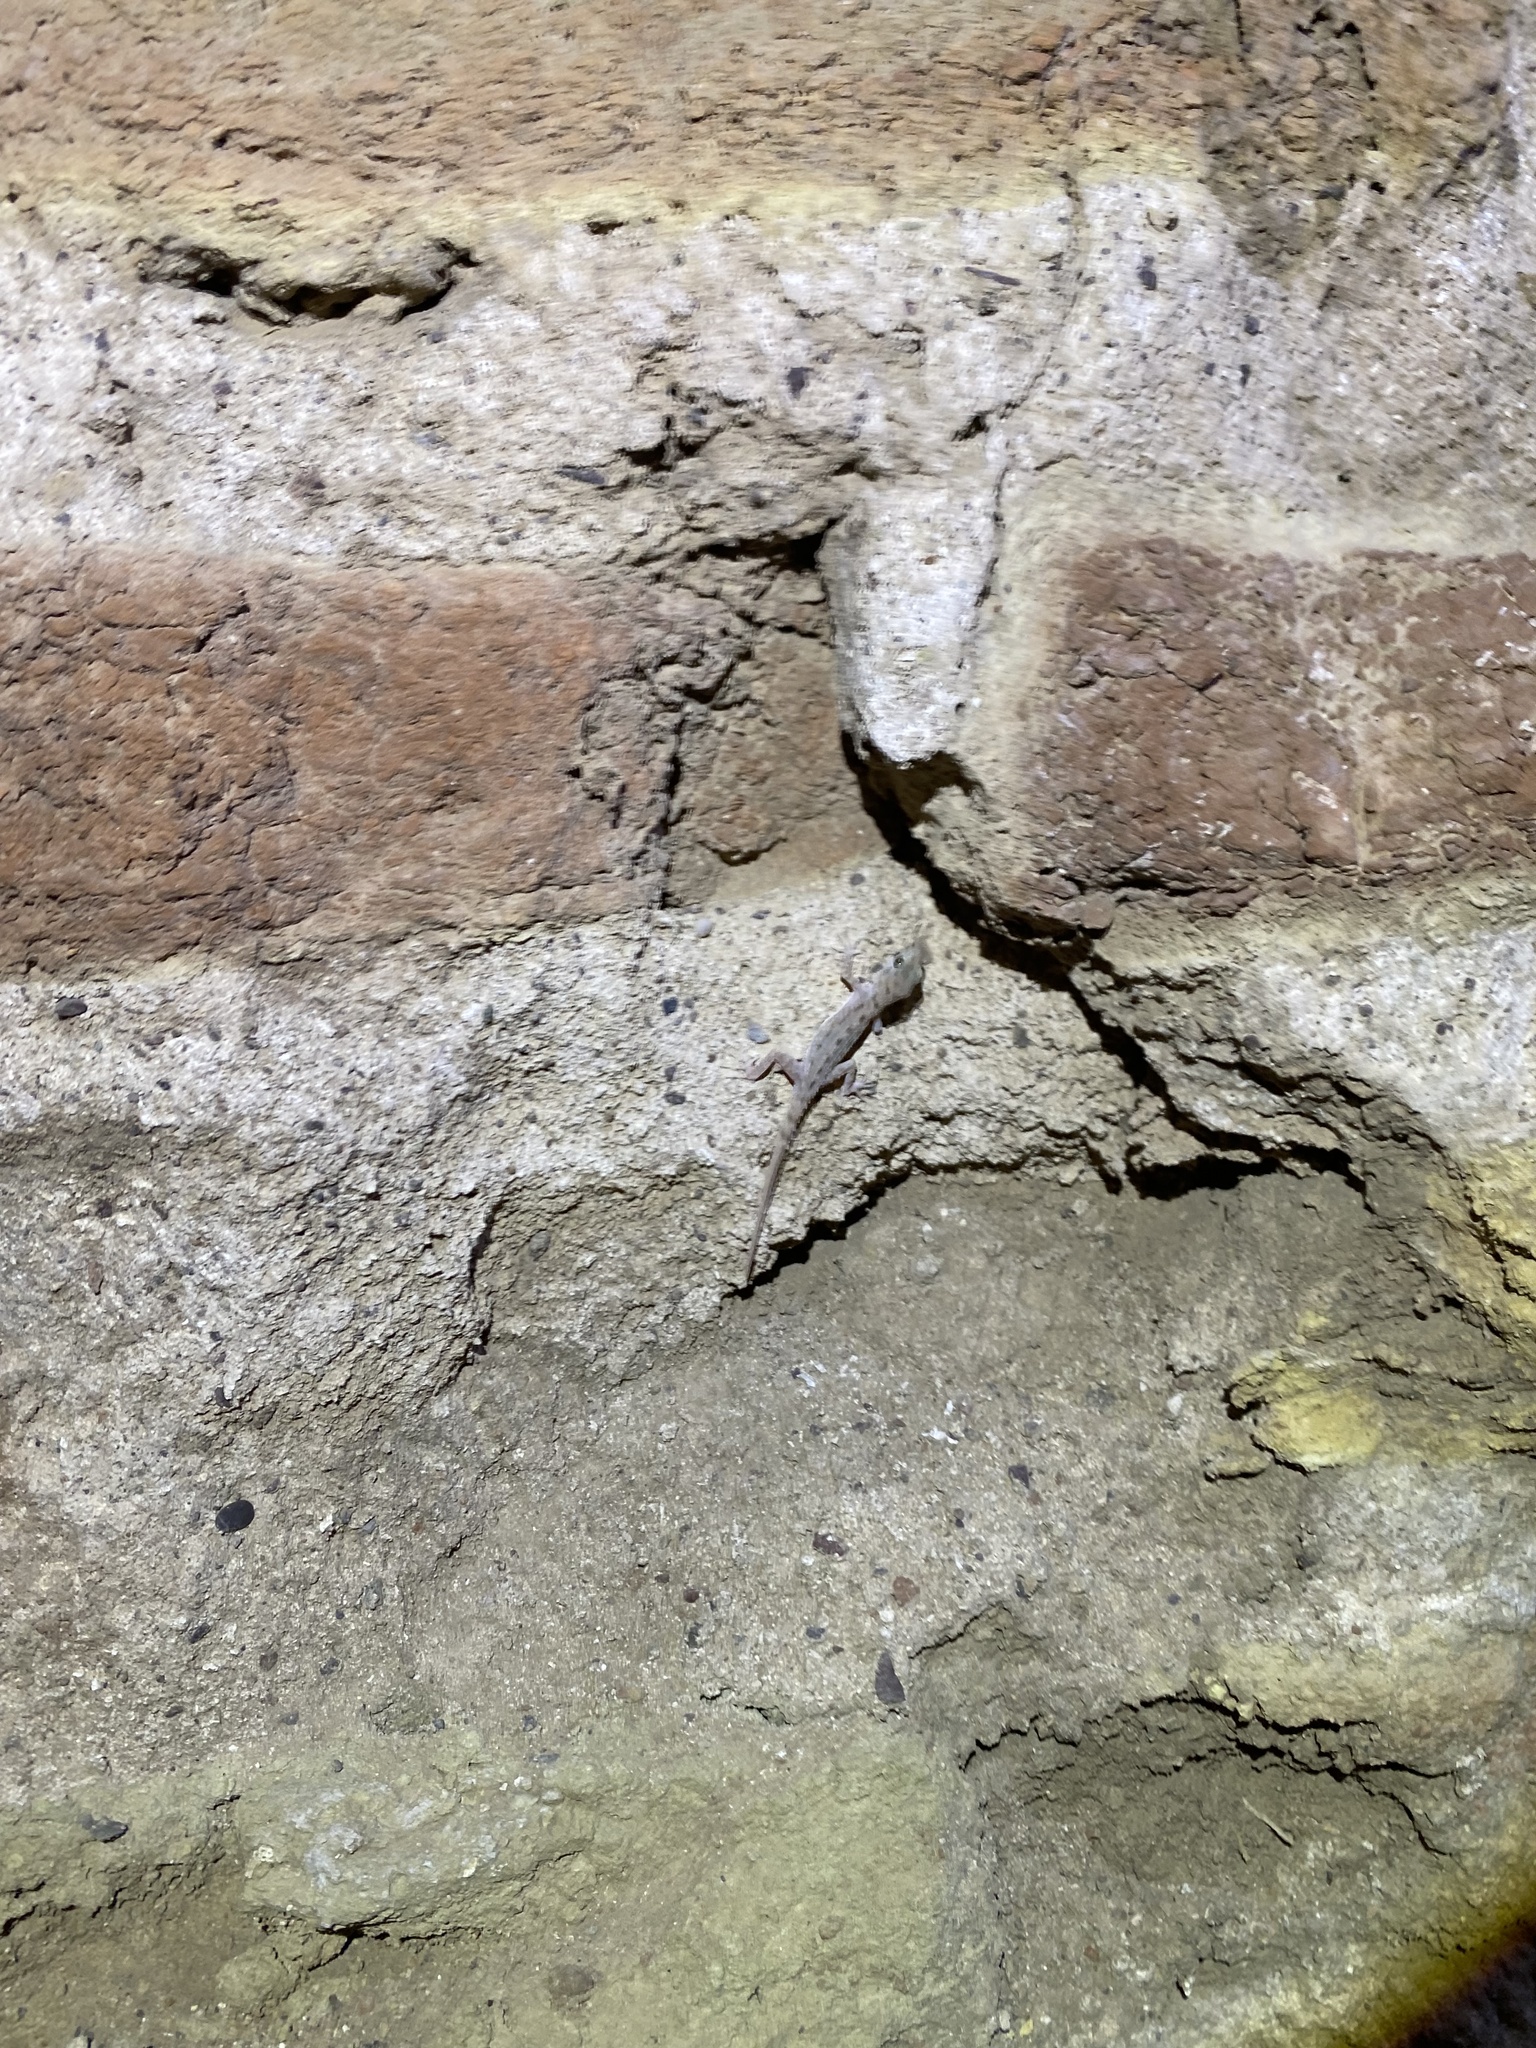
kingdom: Animalia
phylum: Chordata
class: Squamata
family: Gekkonidae
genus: Cyrtopodion
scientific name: Cyrtopodion scabrum
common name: Rough-tailed gecko
